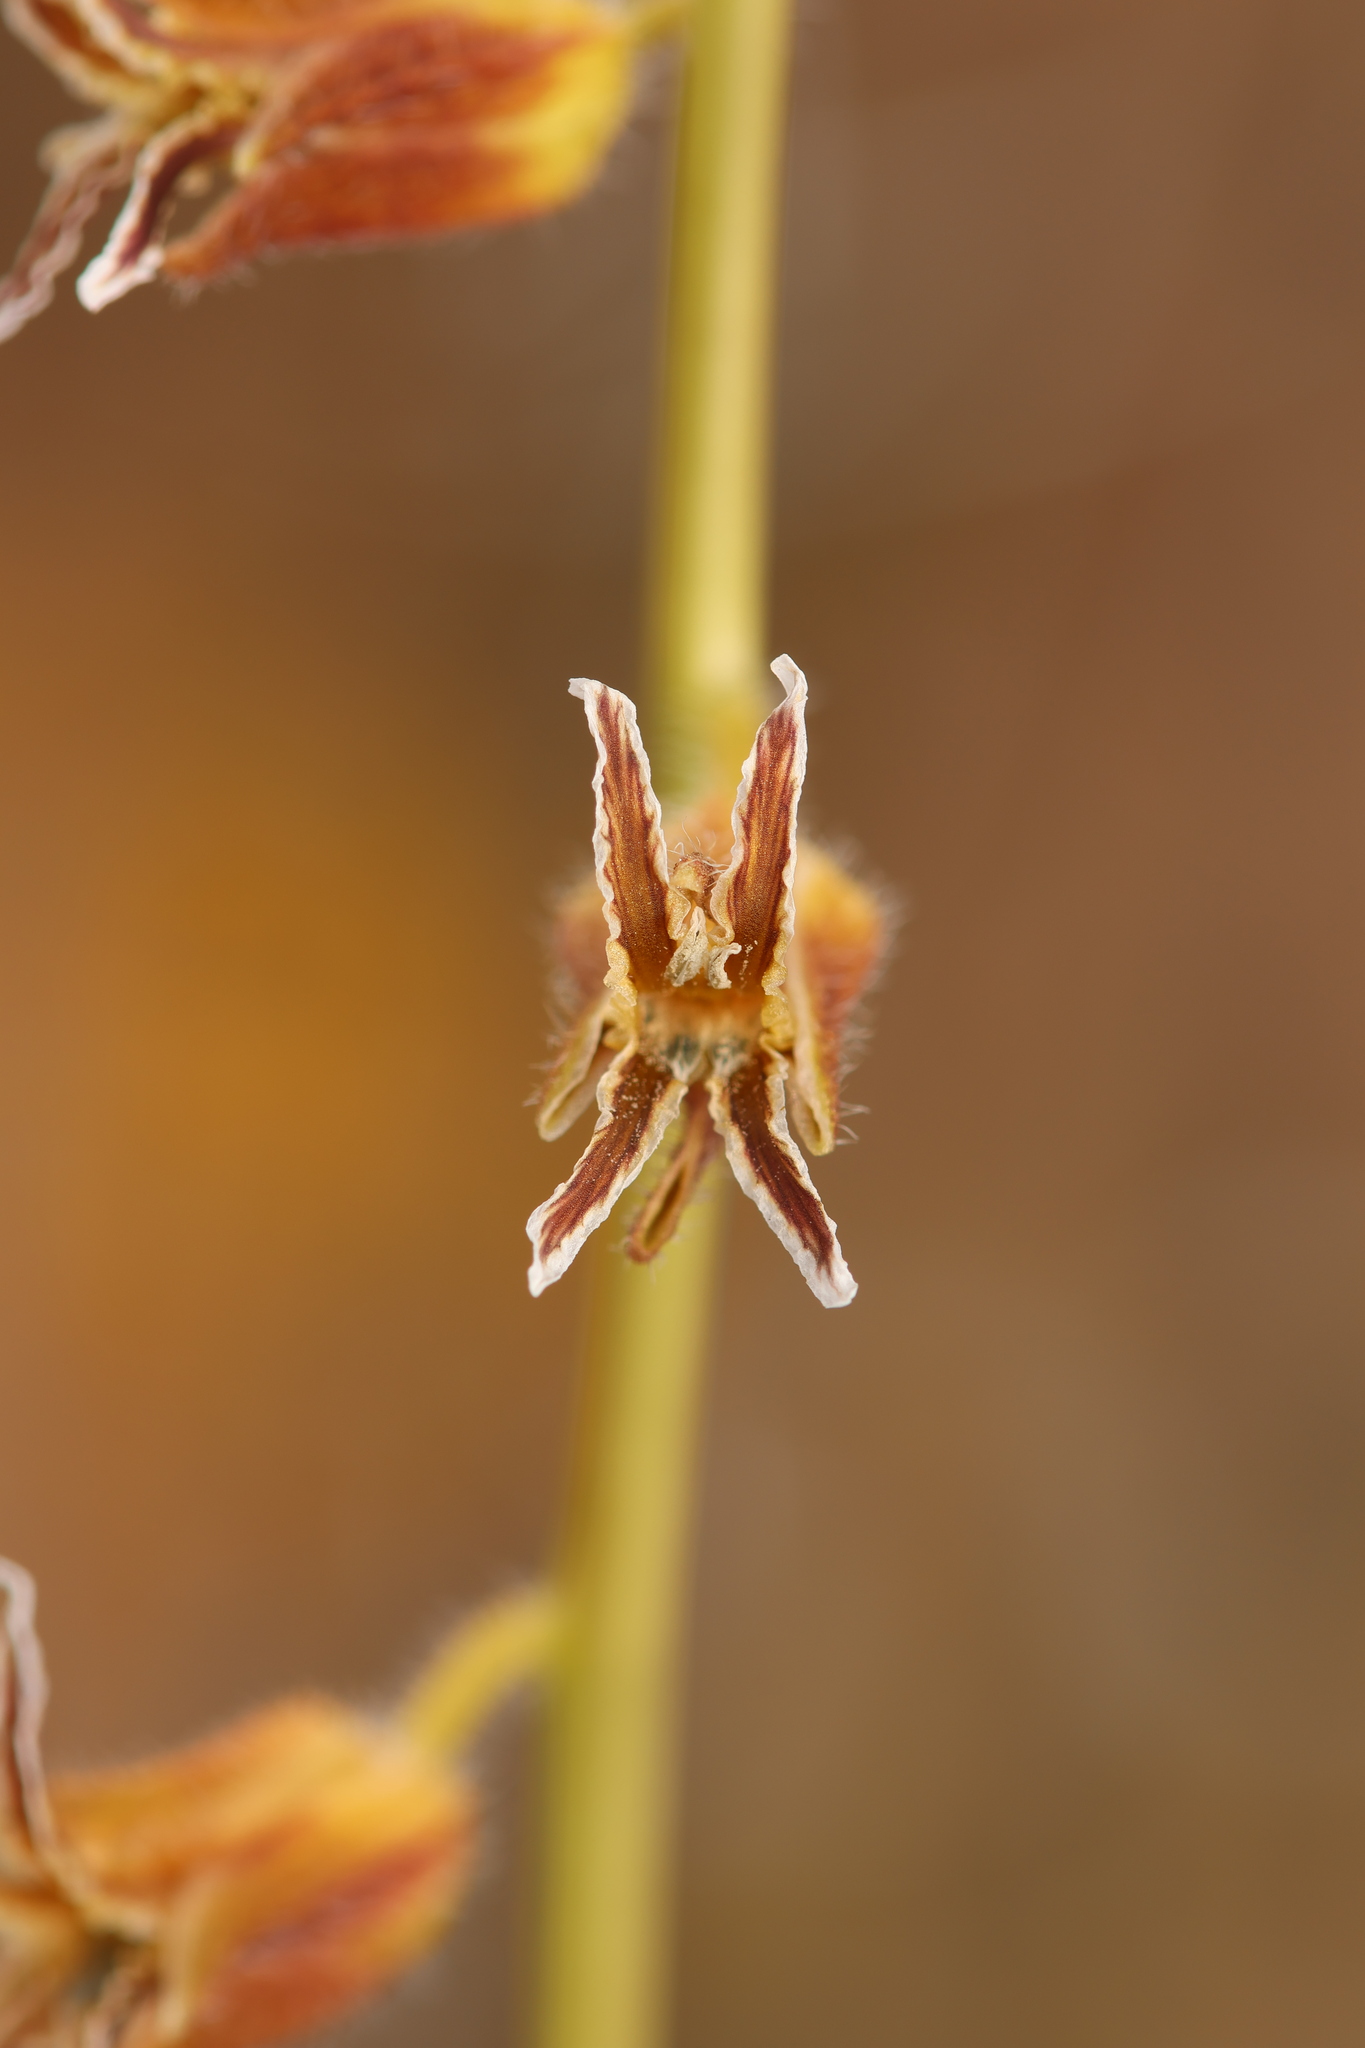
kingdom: Plantae
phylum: Tracheophyta
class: Magnoliopsida
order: Brassicales
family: Brassicaceae
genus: Streptanthus
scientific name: Streptanthus coulteri
